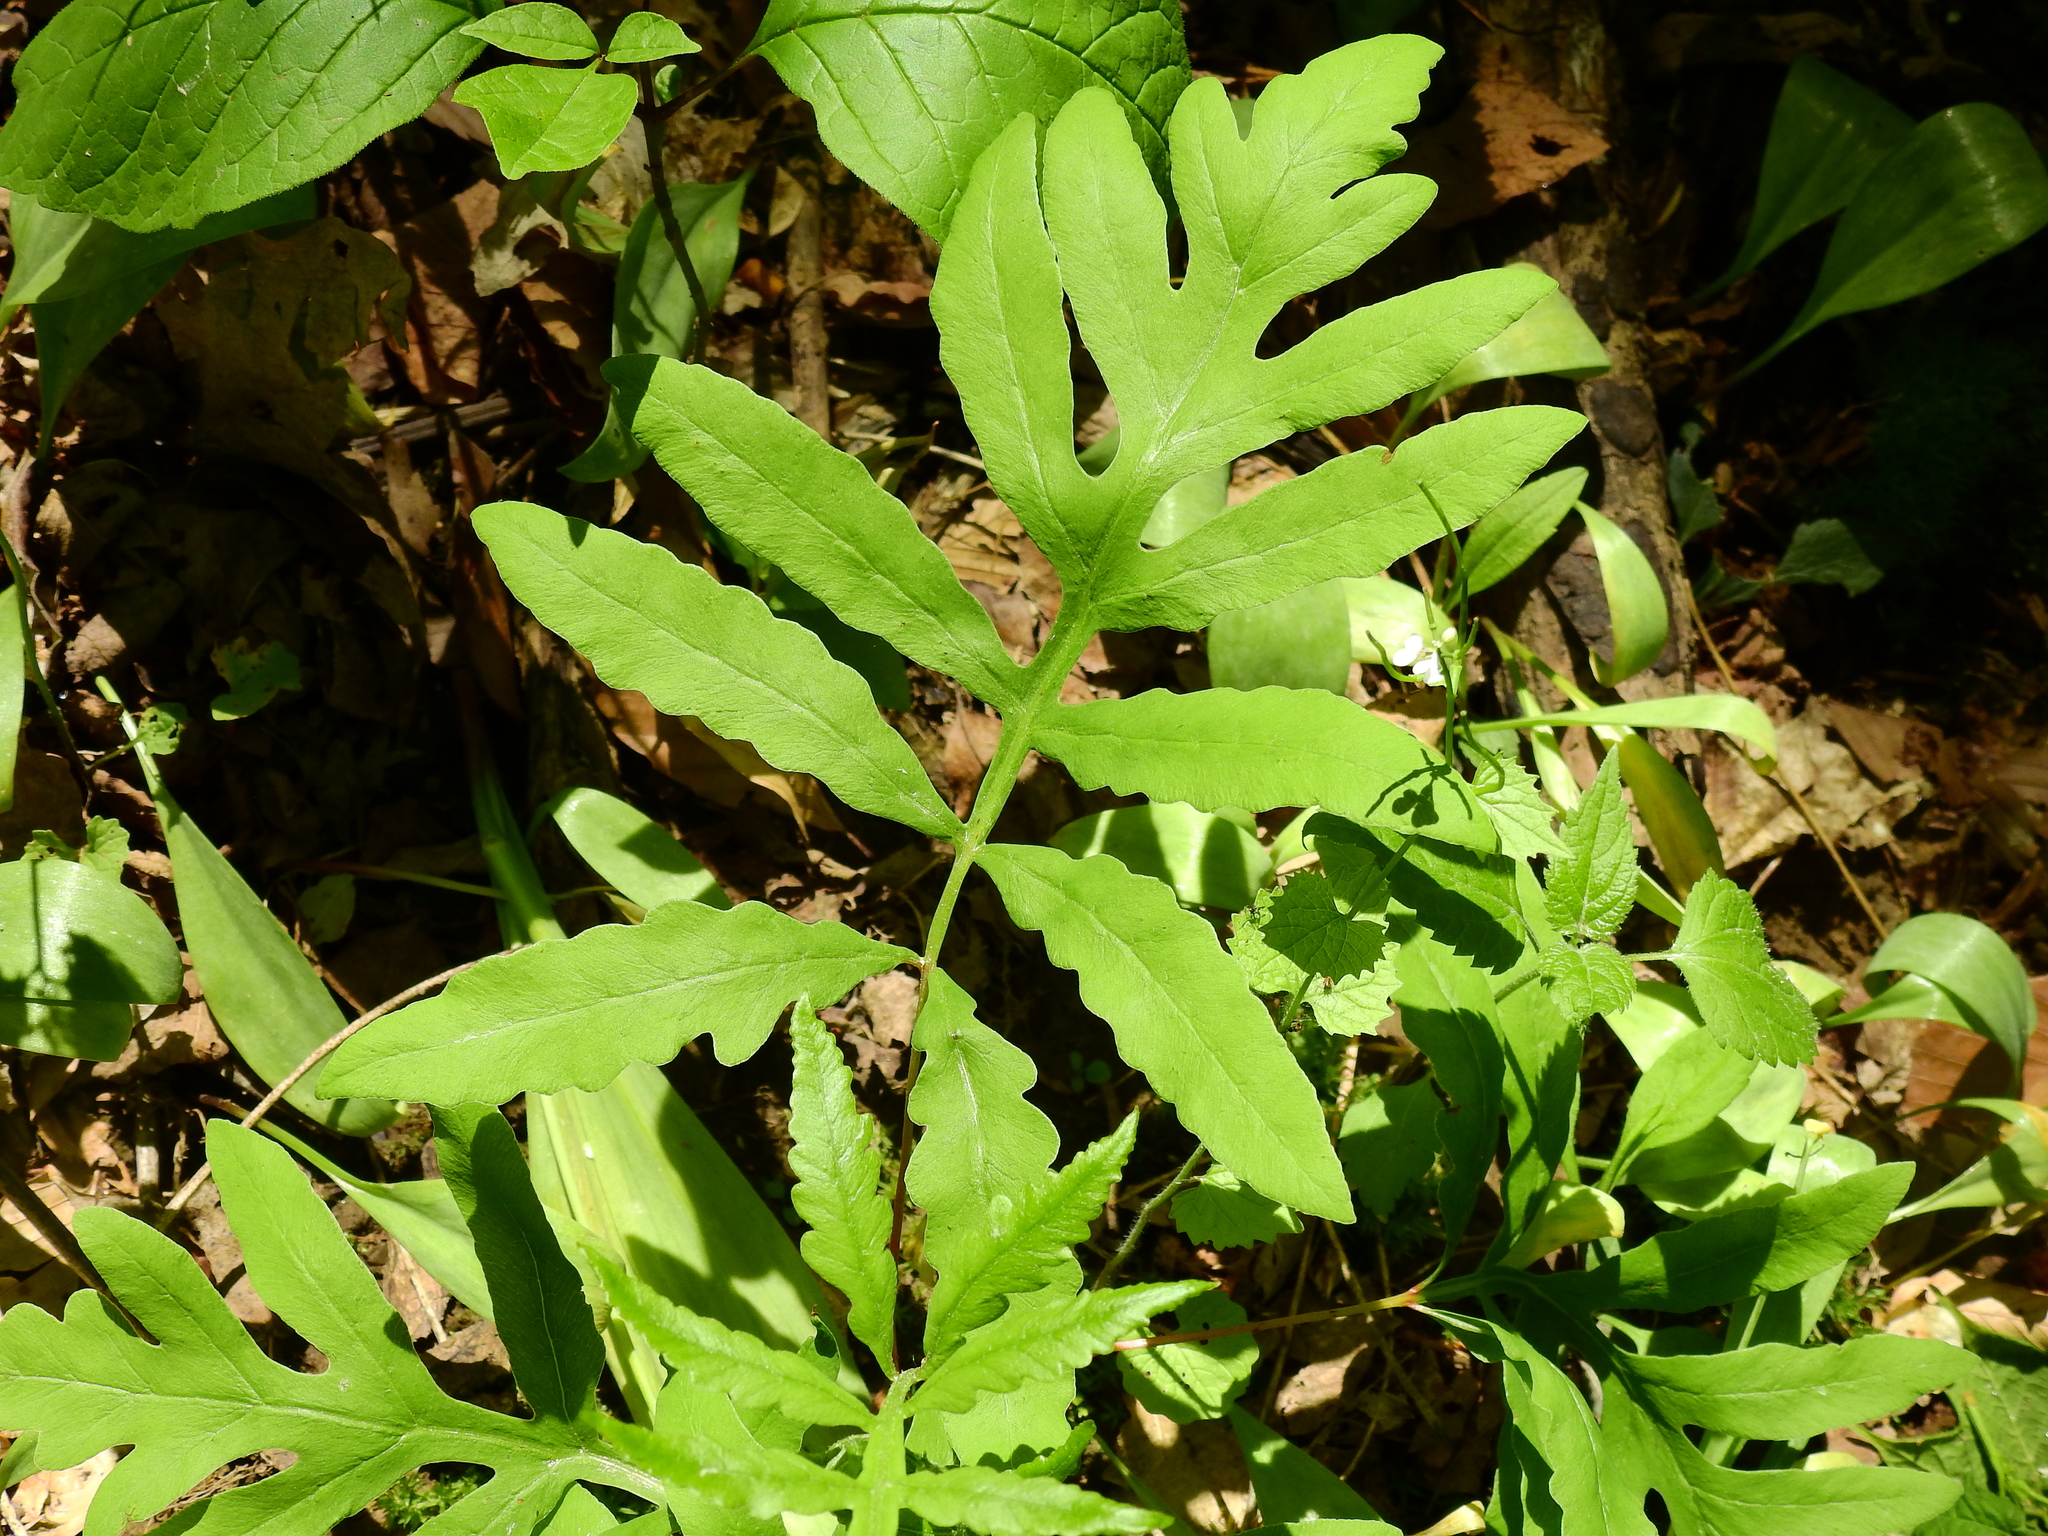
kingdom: Plantae
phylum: Tracheophyta
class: Polypodiopsida
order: Polypodiales
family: Onocleaceae
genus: Onoclea
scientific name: Onoclea sensibilis
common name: Sensitive fern
